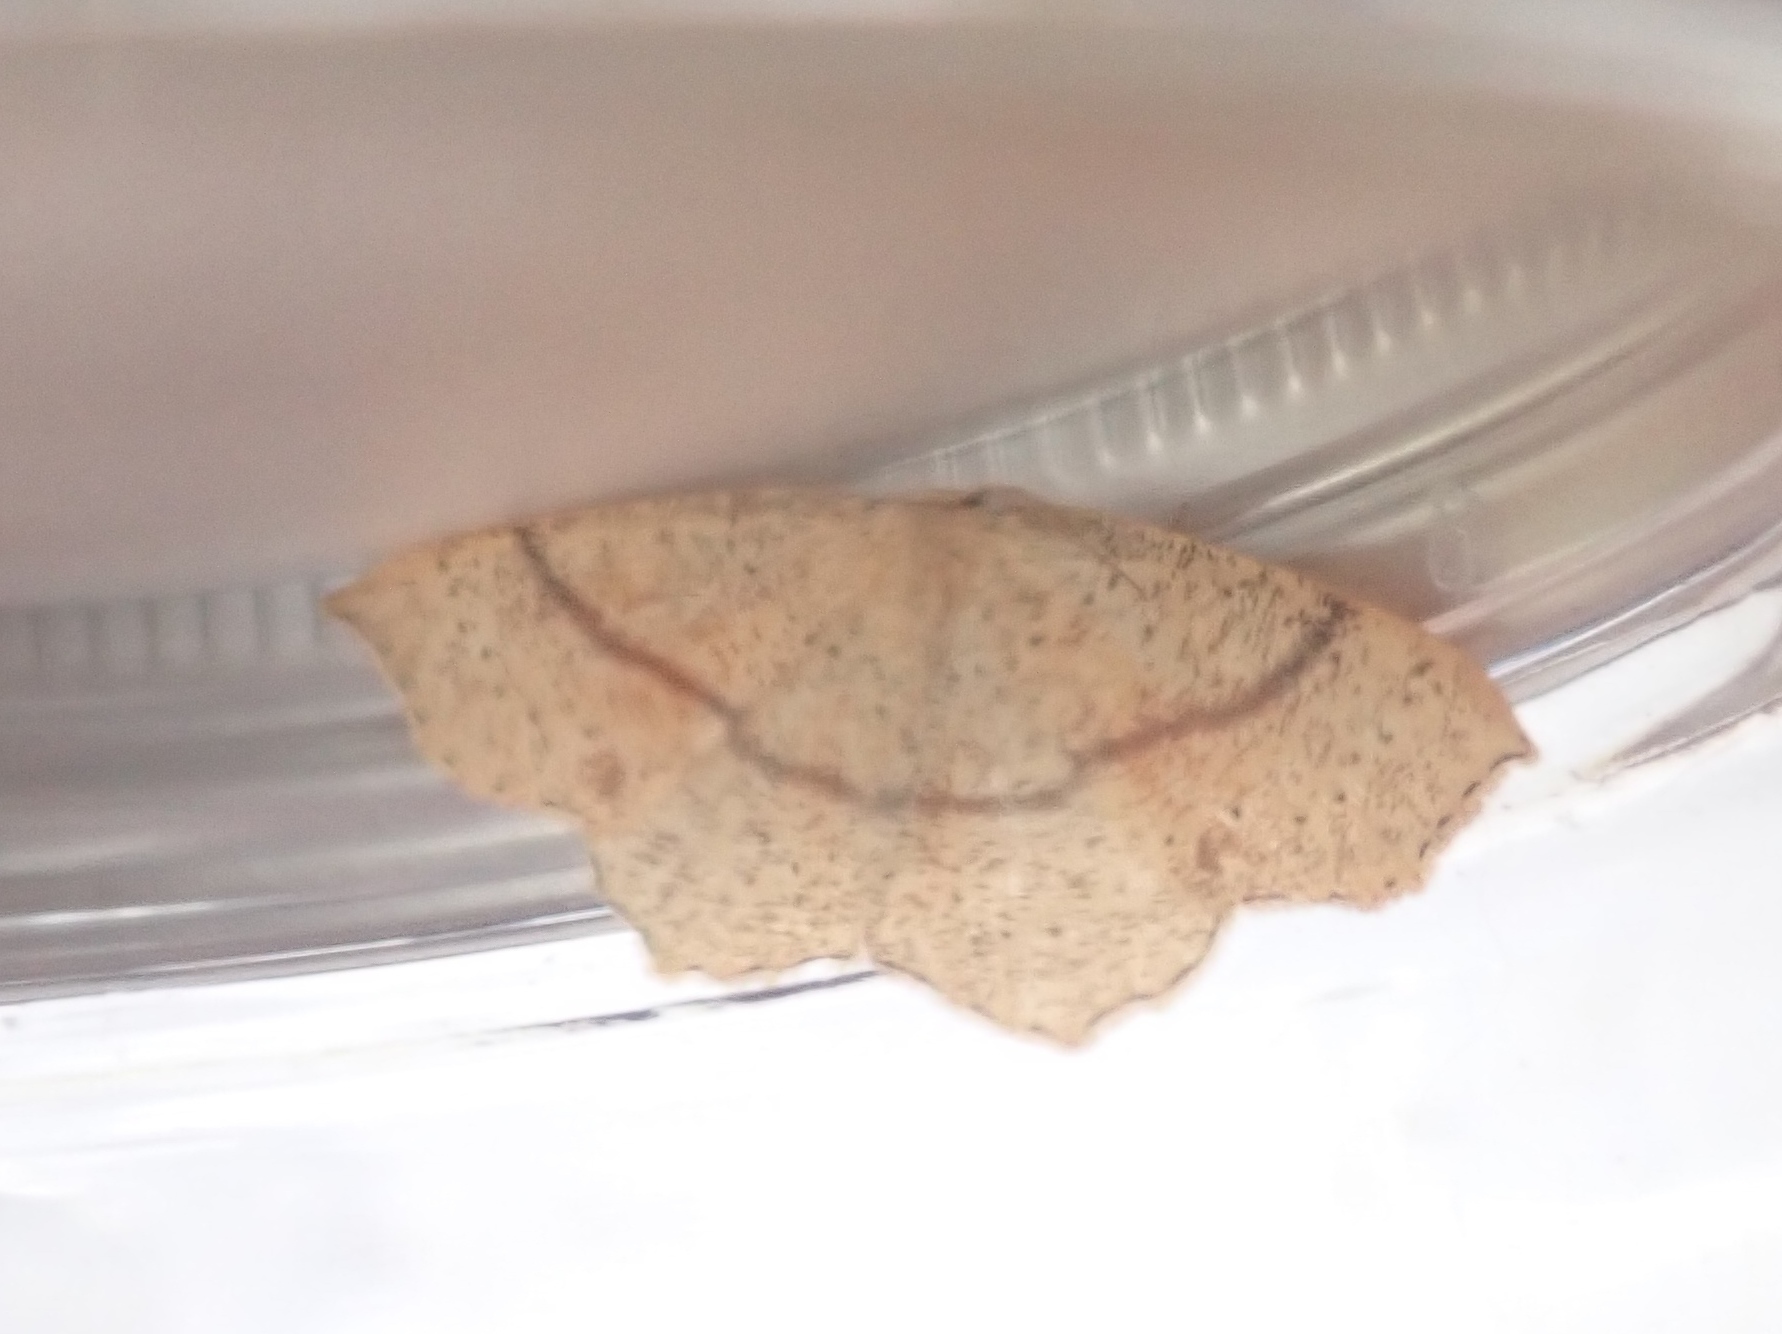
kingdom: Animalia
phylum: Arthropoda
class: Insecta
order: Lepidoptera
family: Geometridae
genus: Cyclophora
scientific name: Cyclophora punctaria
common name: Maiden's blush
